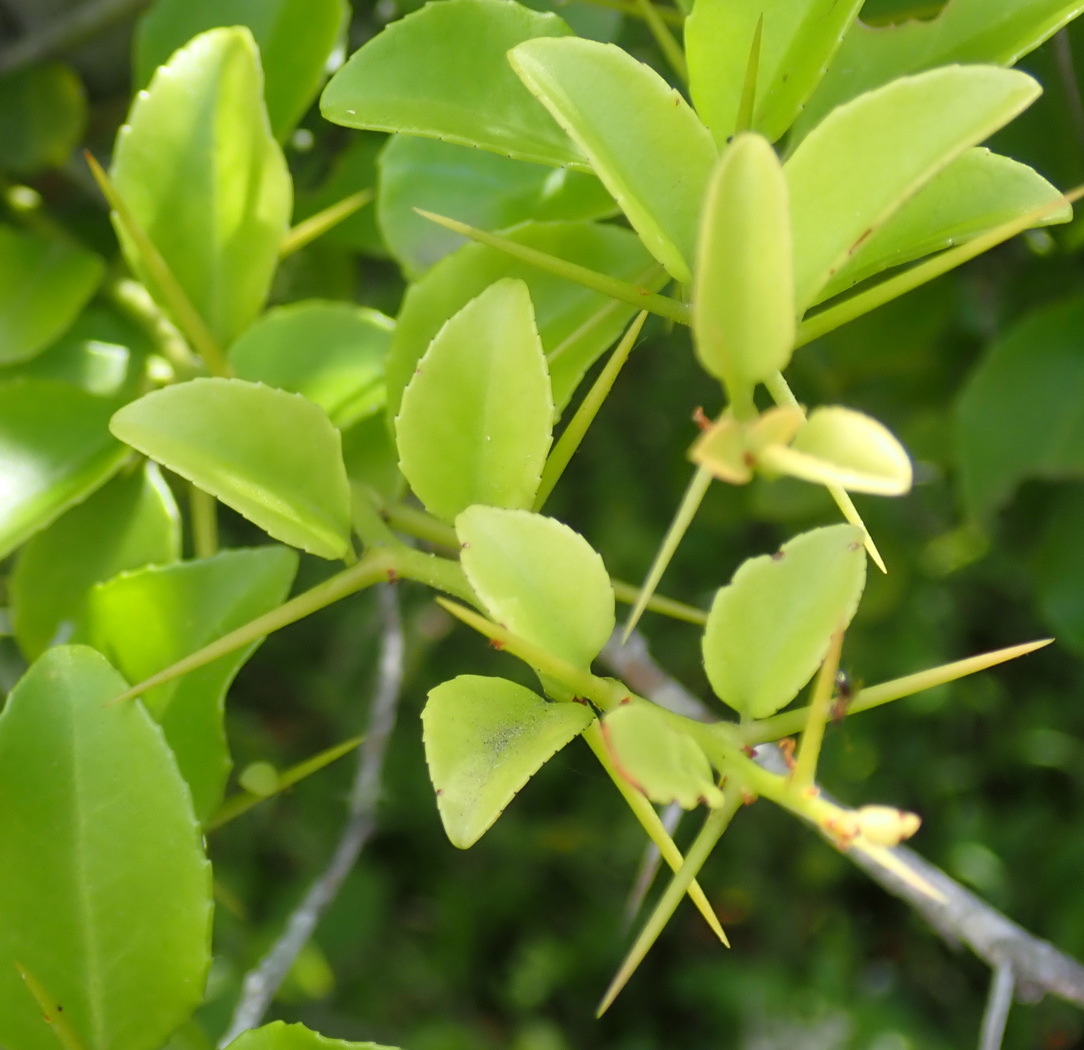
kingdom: Plantae
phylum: Tracheophyta
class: Magnoliopsida
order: Celastrales
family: Celastraceae
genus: Mystroxylon
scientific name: Mystroxylon aethiopicum
